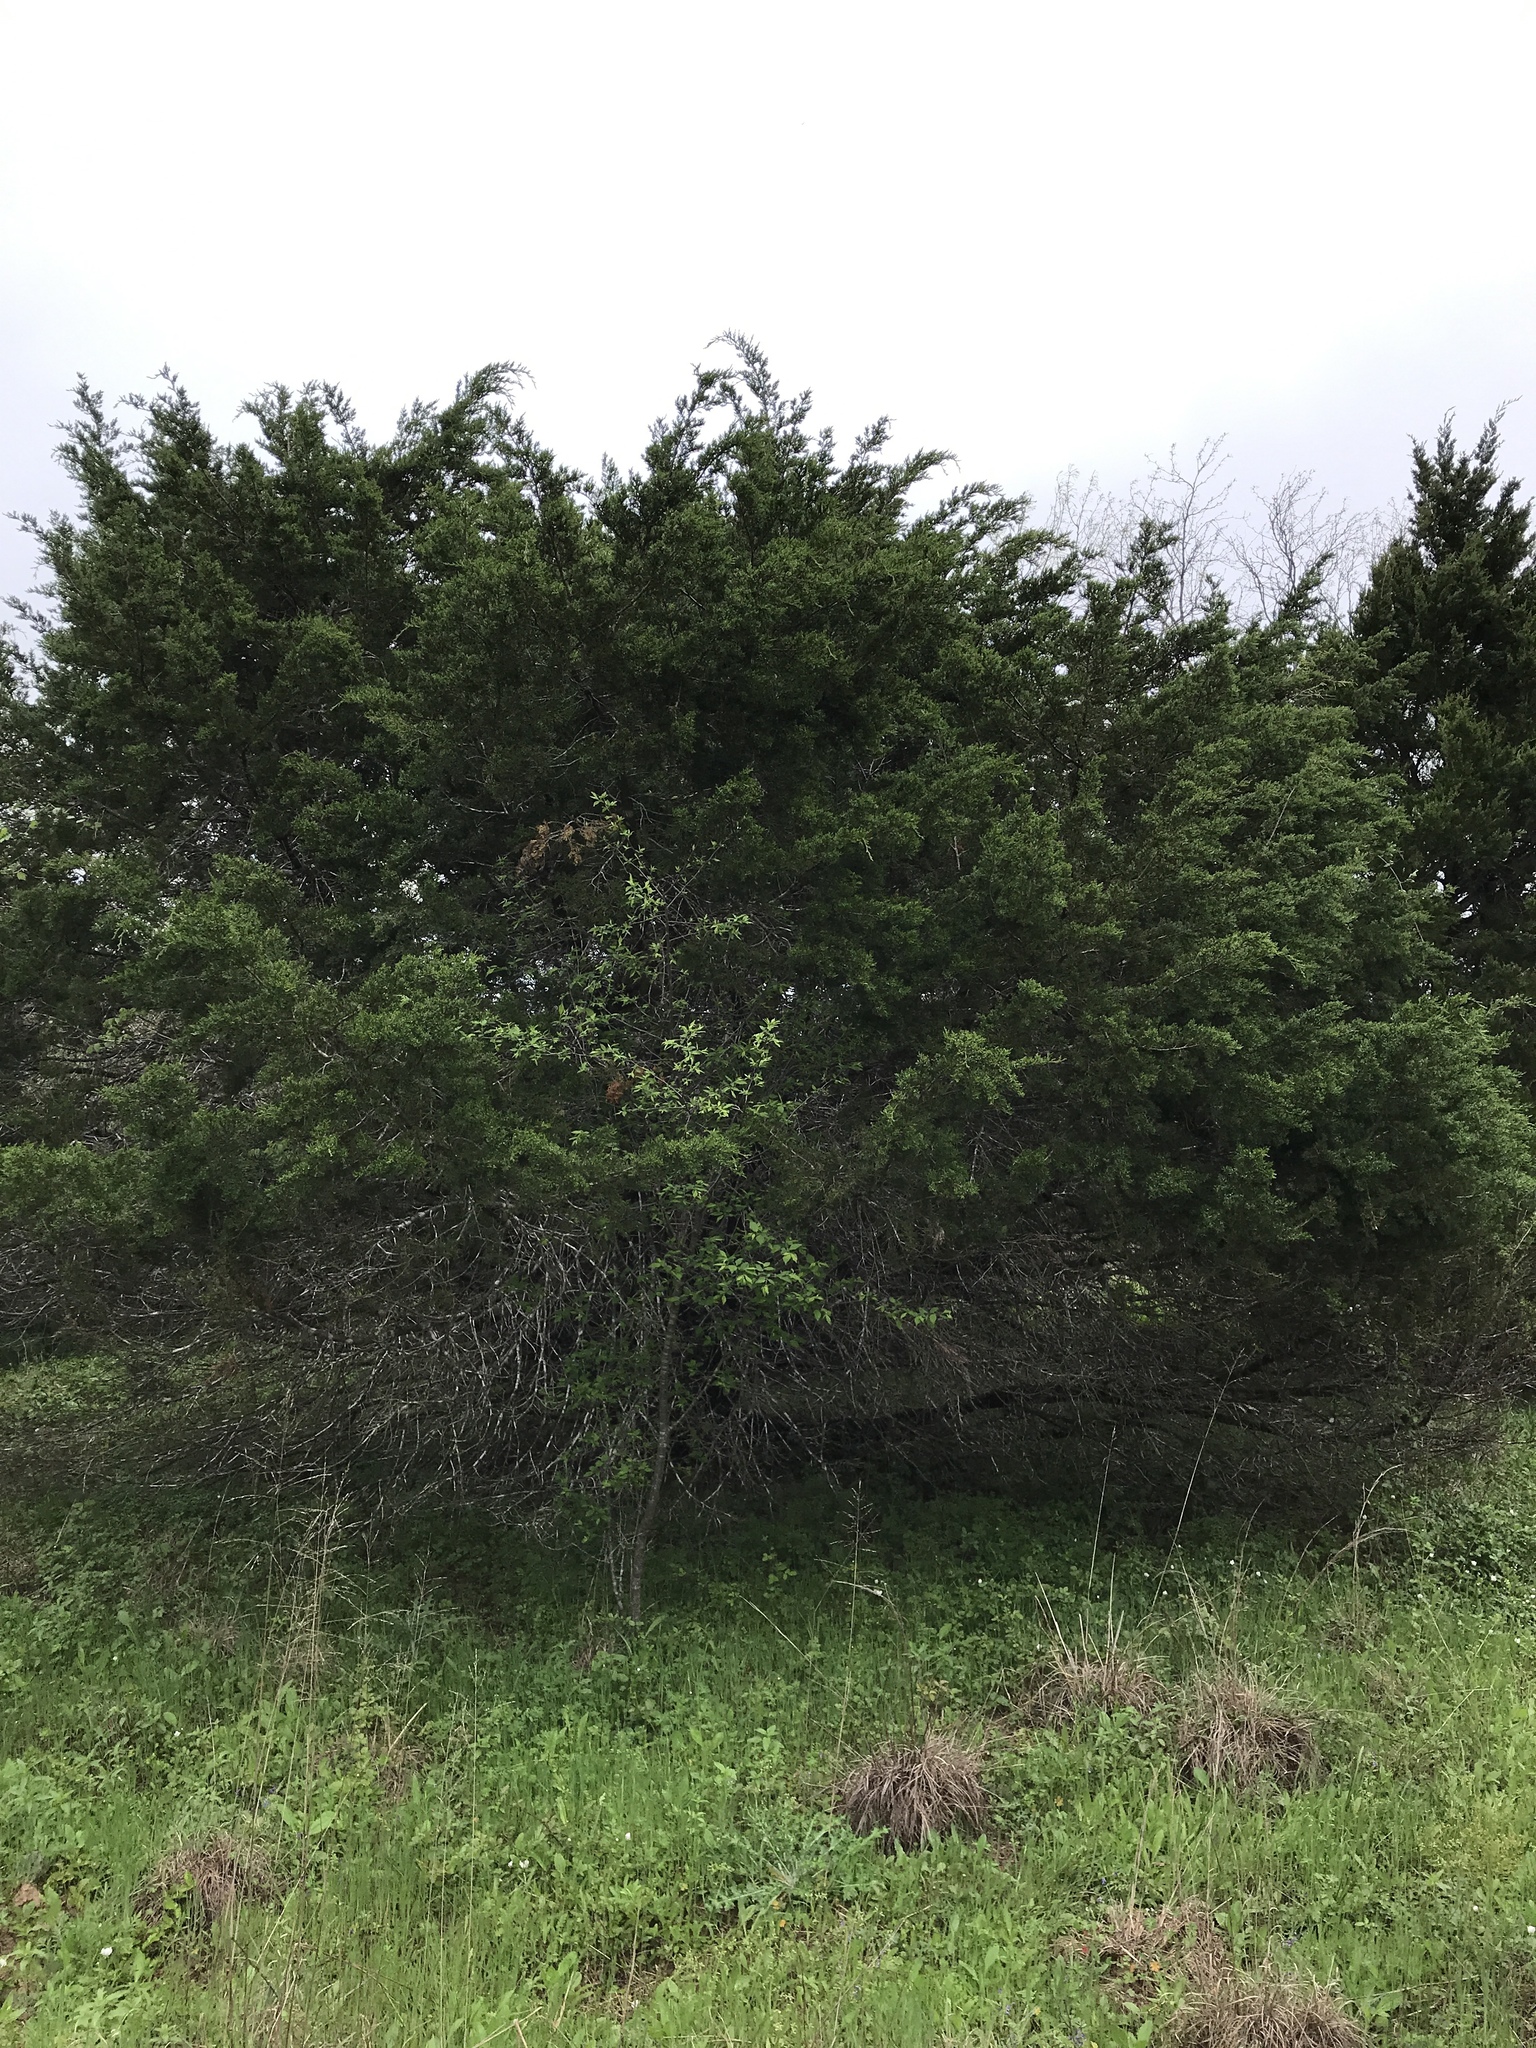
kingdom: Fungi
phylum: Ascomycota
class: Lecanoromycetes
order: Ostropales
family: Stictidaceae
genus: Robergea
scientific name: Robergea
